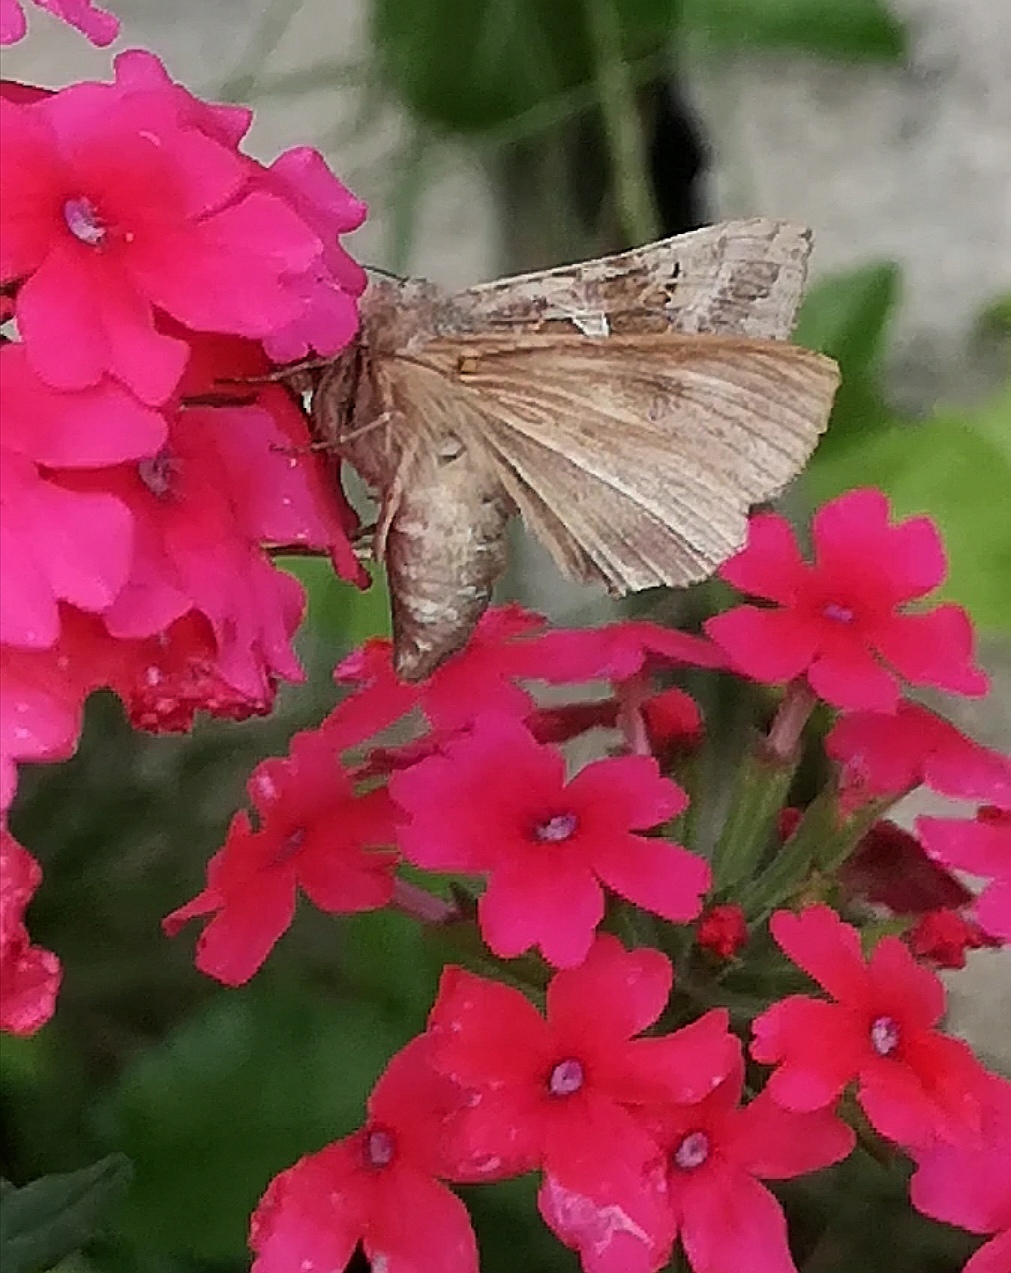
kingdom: Animalia
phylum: Arthropoda
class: Insecta
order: Lepidoptera
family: Noctuidae
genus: Autographa
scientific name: Autographa gamma
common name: Silver y
